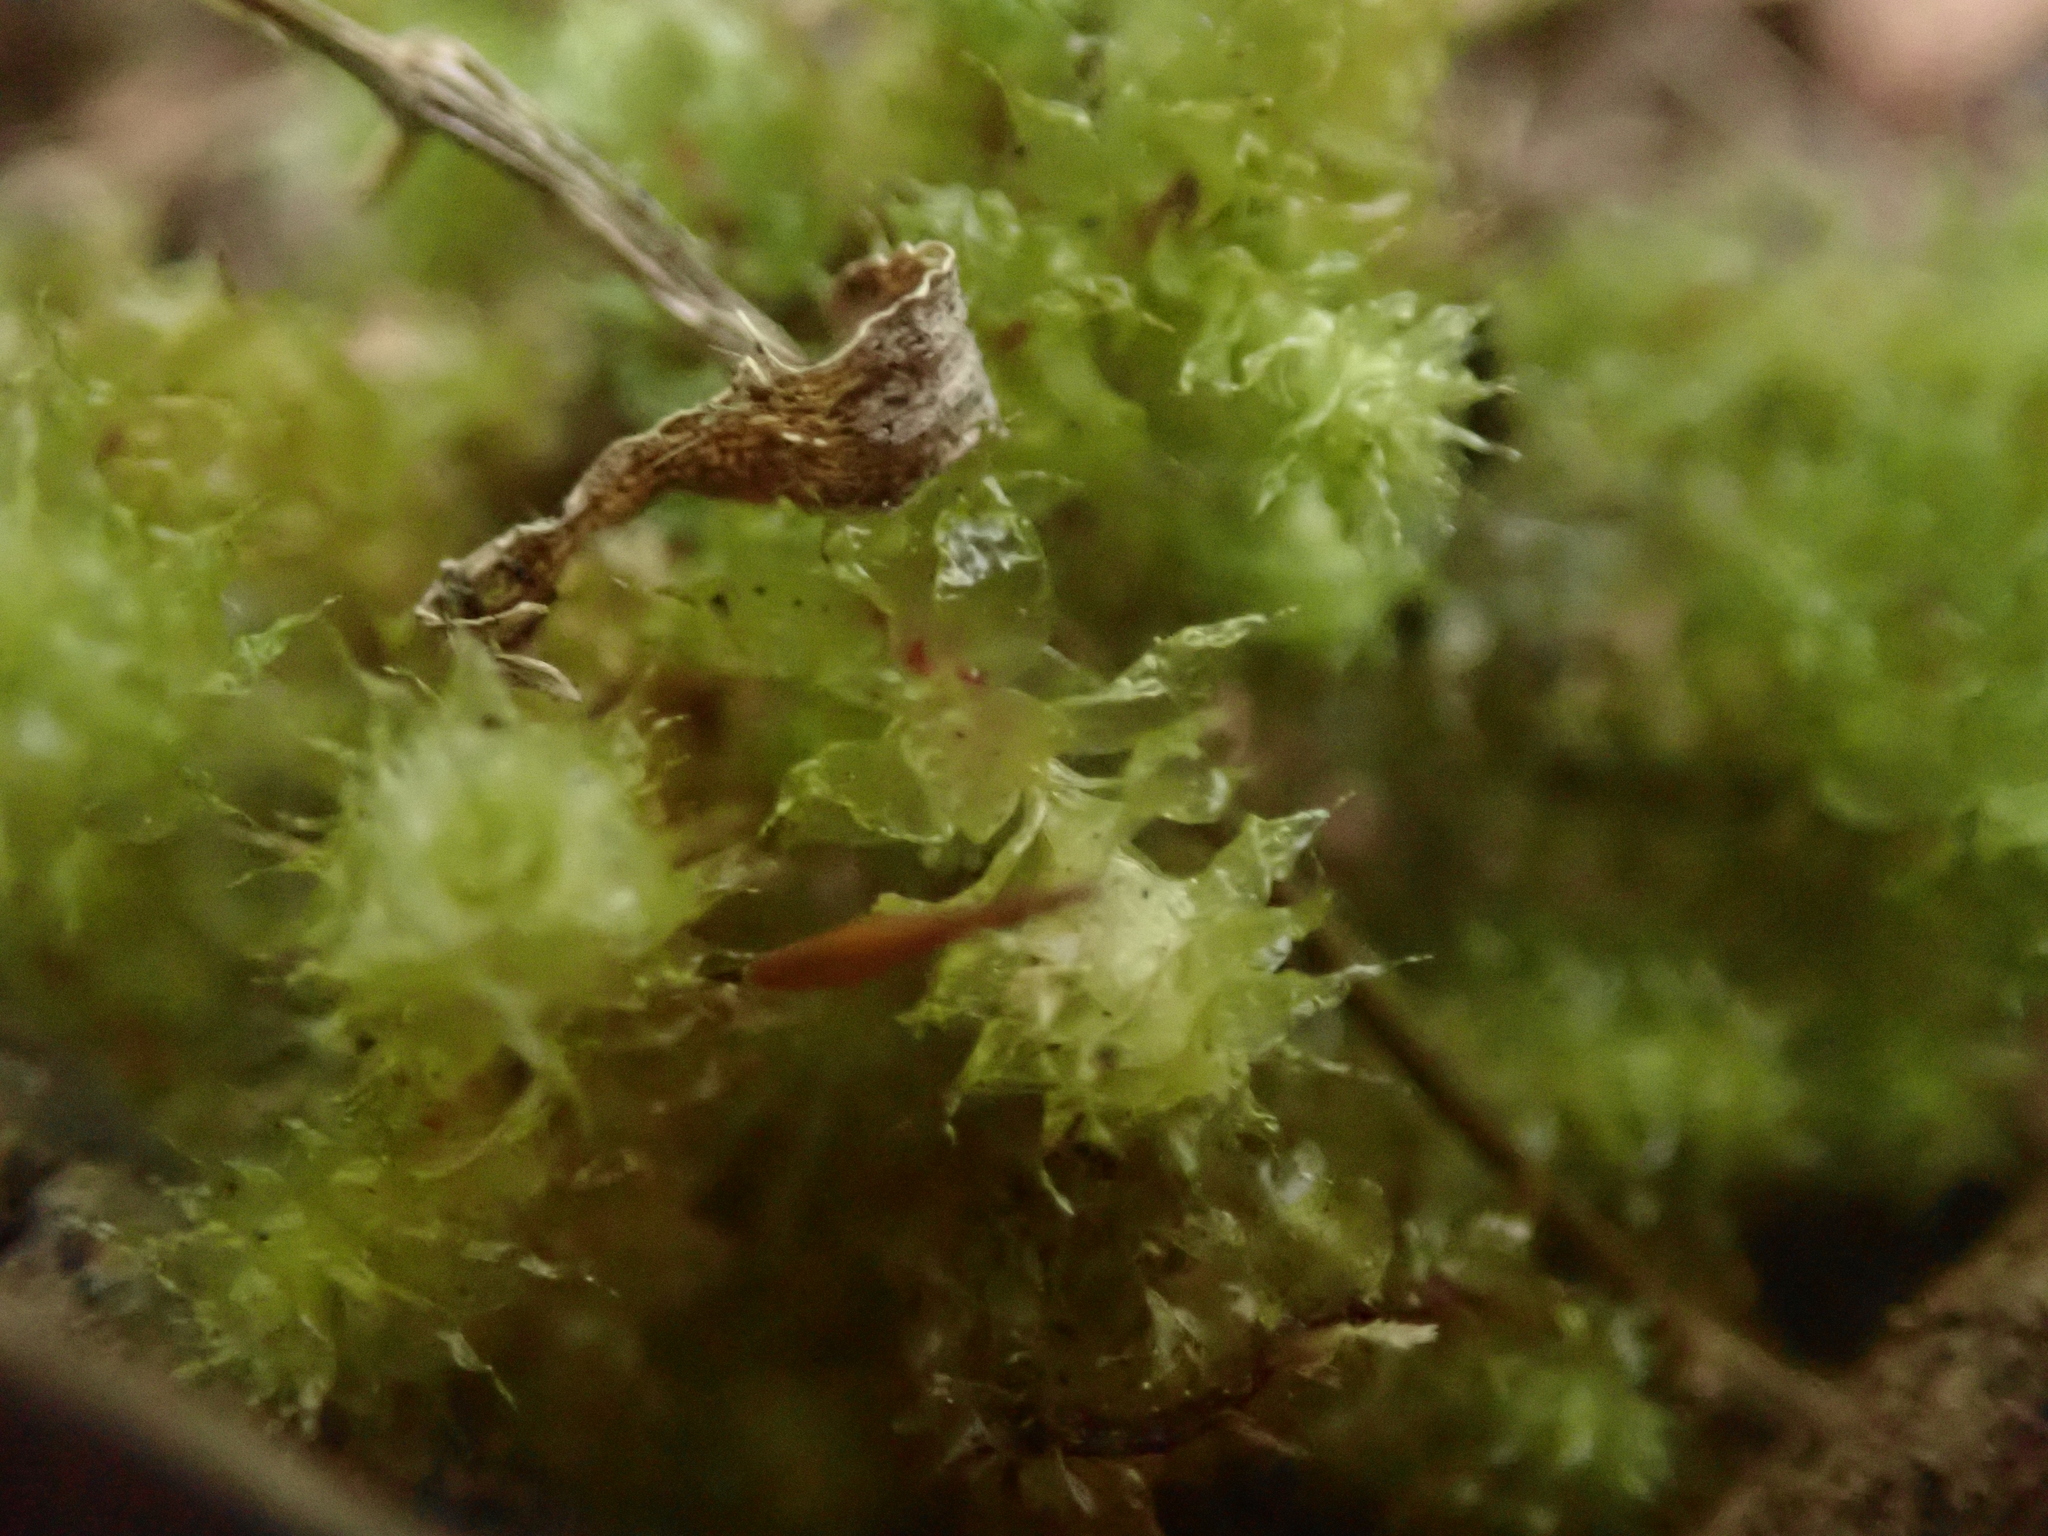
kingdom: Plantae
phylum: Bryophyta
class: Bryopsida
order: Ptychomniales
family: Ptychomniaceae
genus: Ptychomnion
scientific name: Ptychomnion aciculare
